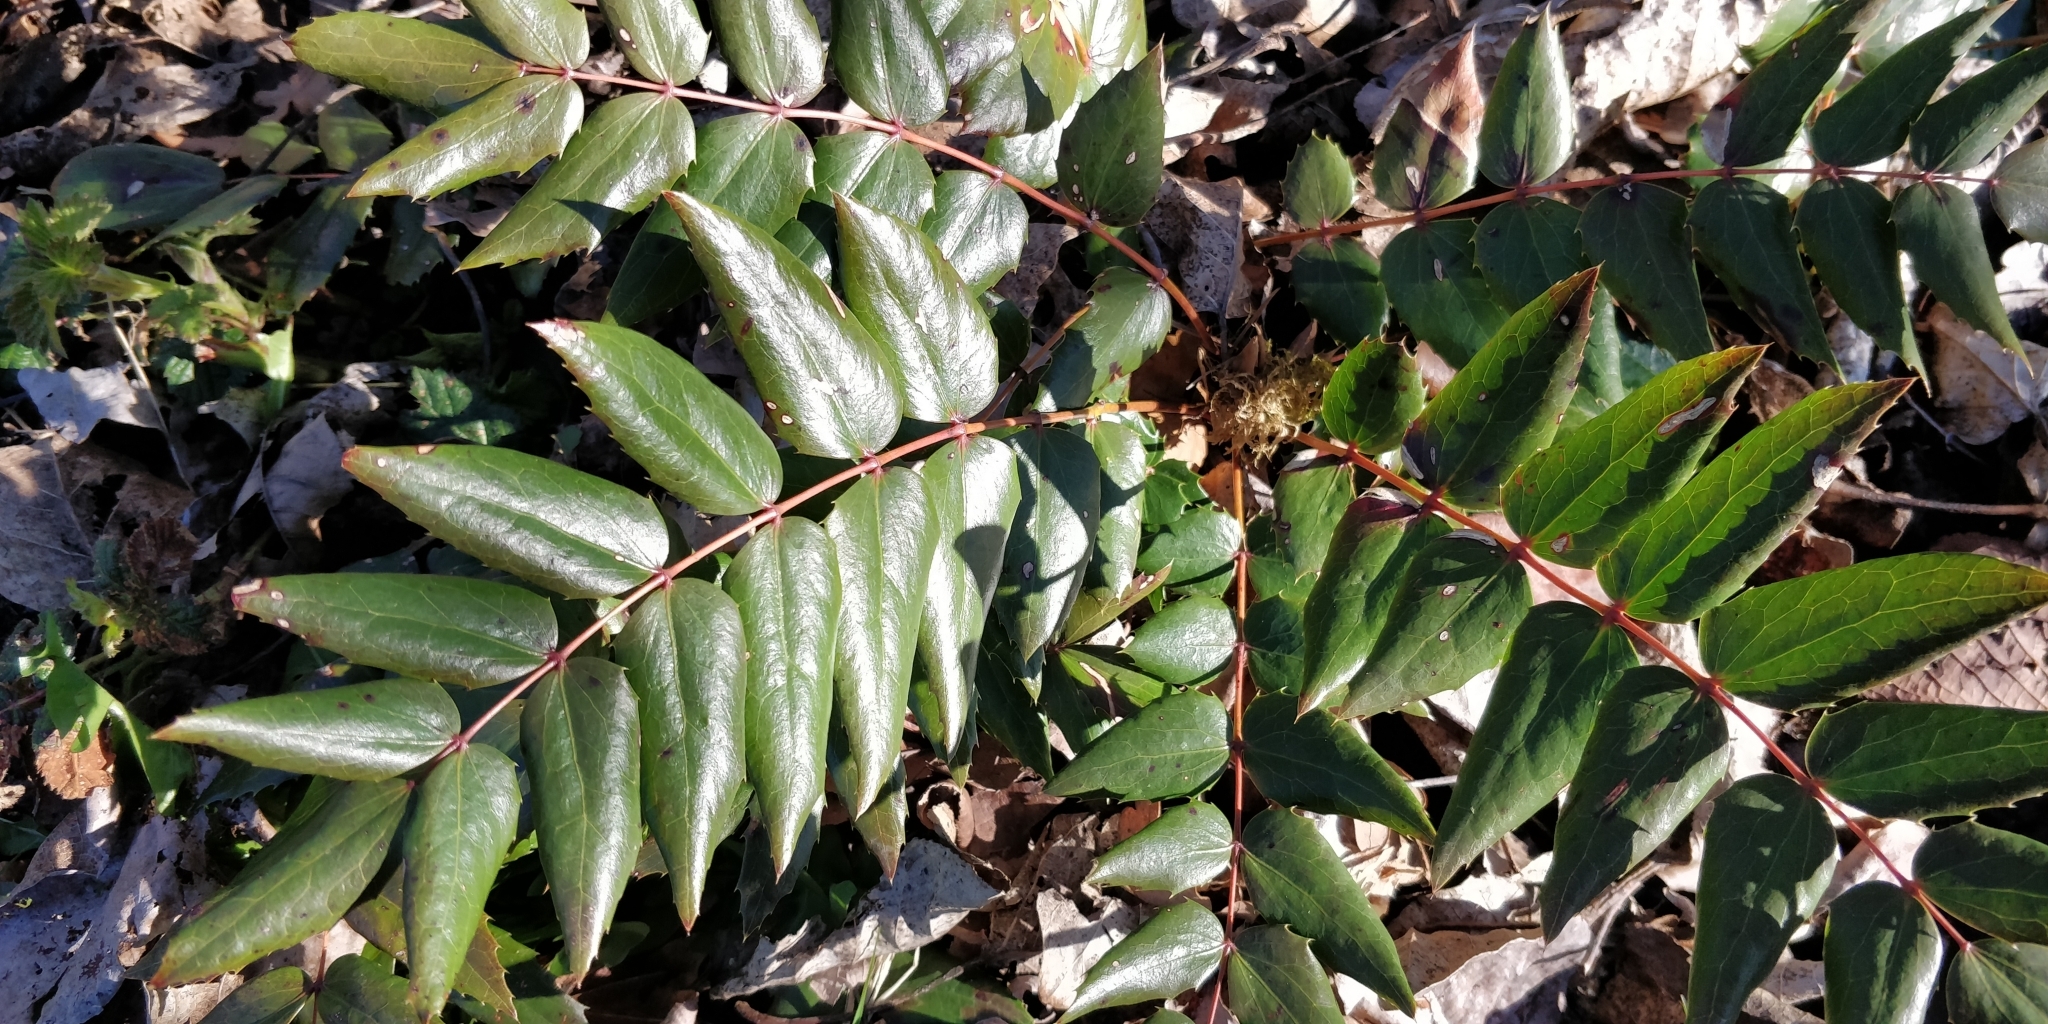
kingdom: Plantae
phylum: Tracheophyta
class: Magnoliopsida
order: Ranunculales
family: Berberidaceae
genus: Mahonia
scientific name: Mahonia nervosa
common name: Cascade oregon-grape
